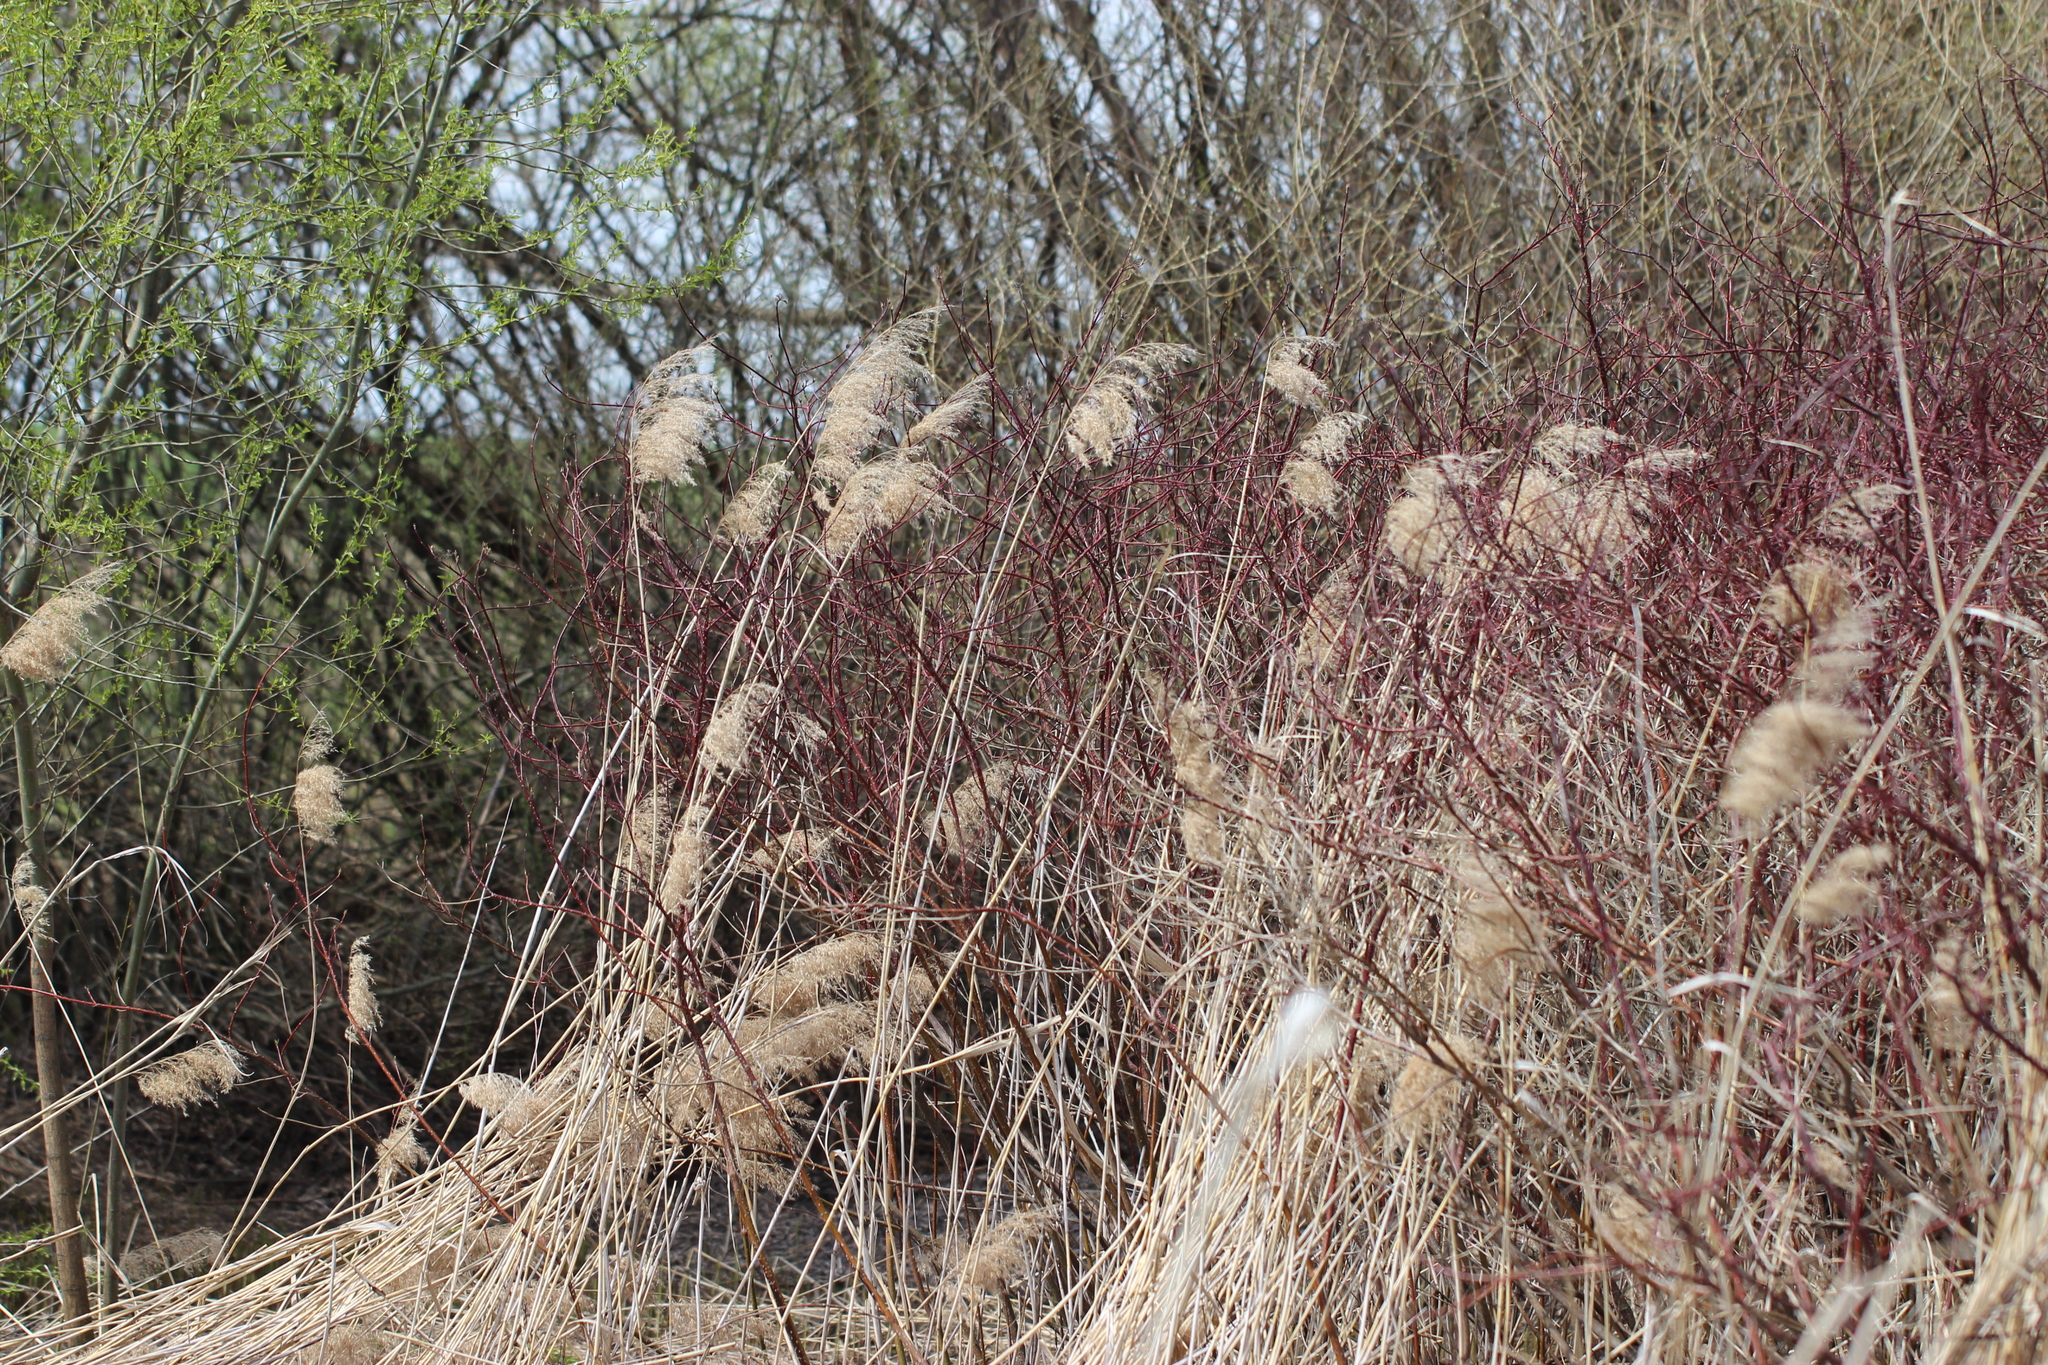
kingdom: Plantae
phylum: Tracheophyta
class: Liliopsida
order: Poales
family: Poaceae
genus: Phragmites
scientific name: Phragmites australis
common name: Common reed
